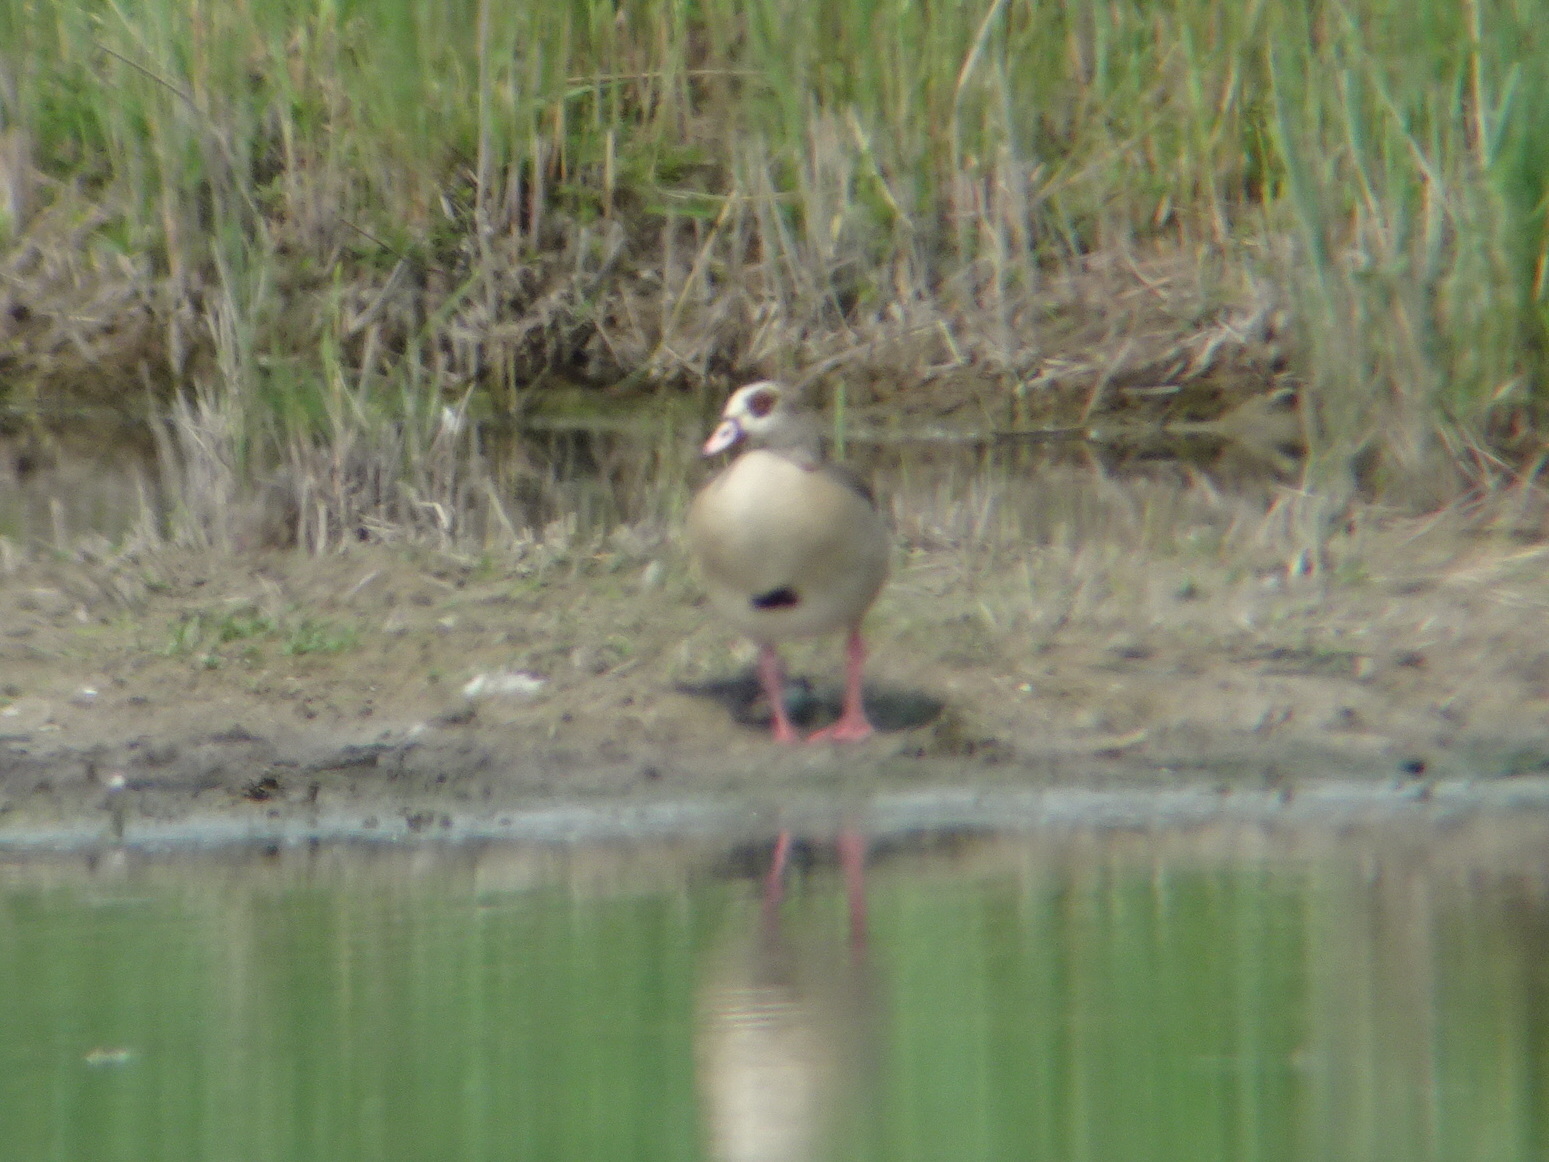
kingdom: Animalia
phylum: Chordata
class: Aves
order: Anseriformes
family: Anatidae
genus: Alopochen
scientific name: Alopochen aegyptiaca
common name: Egyptian goose
